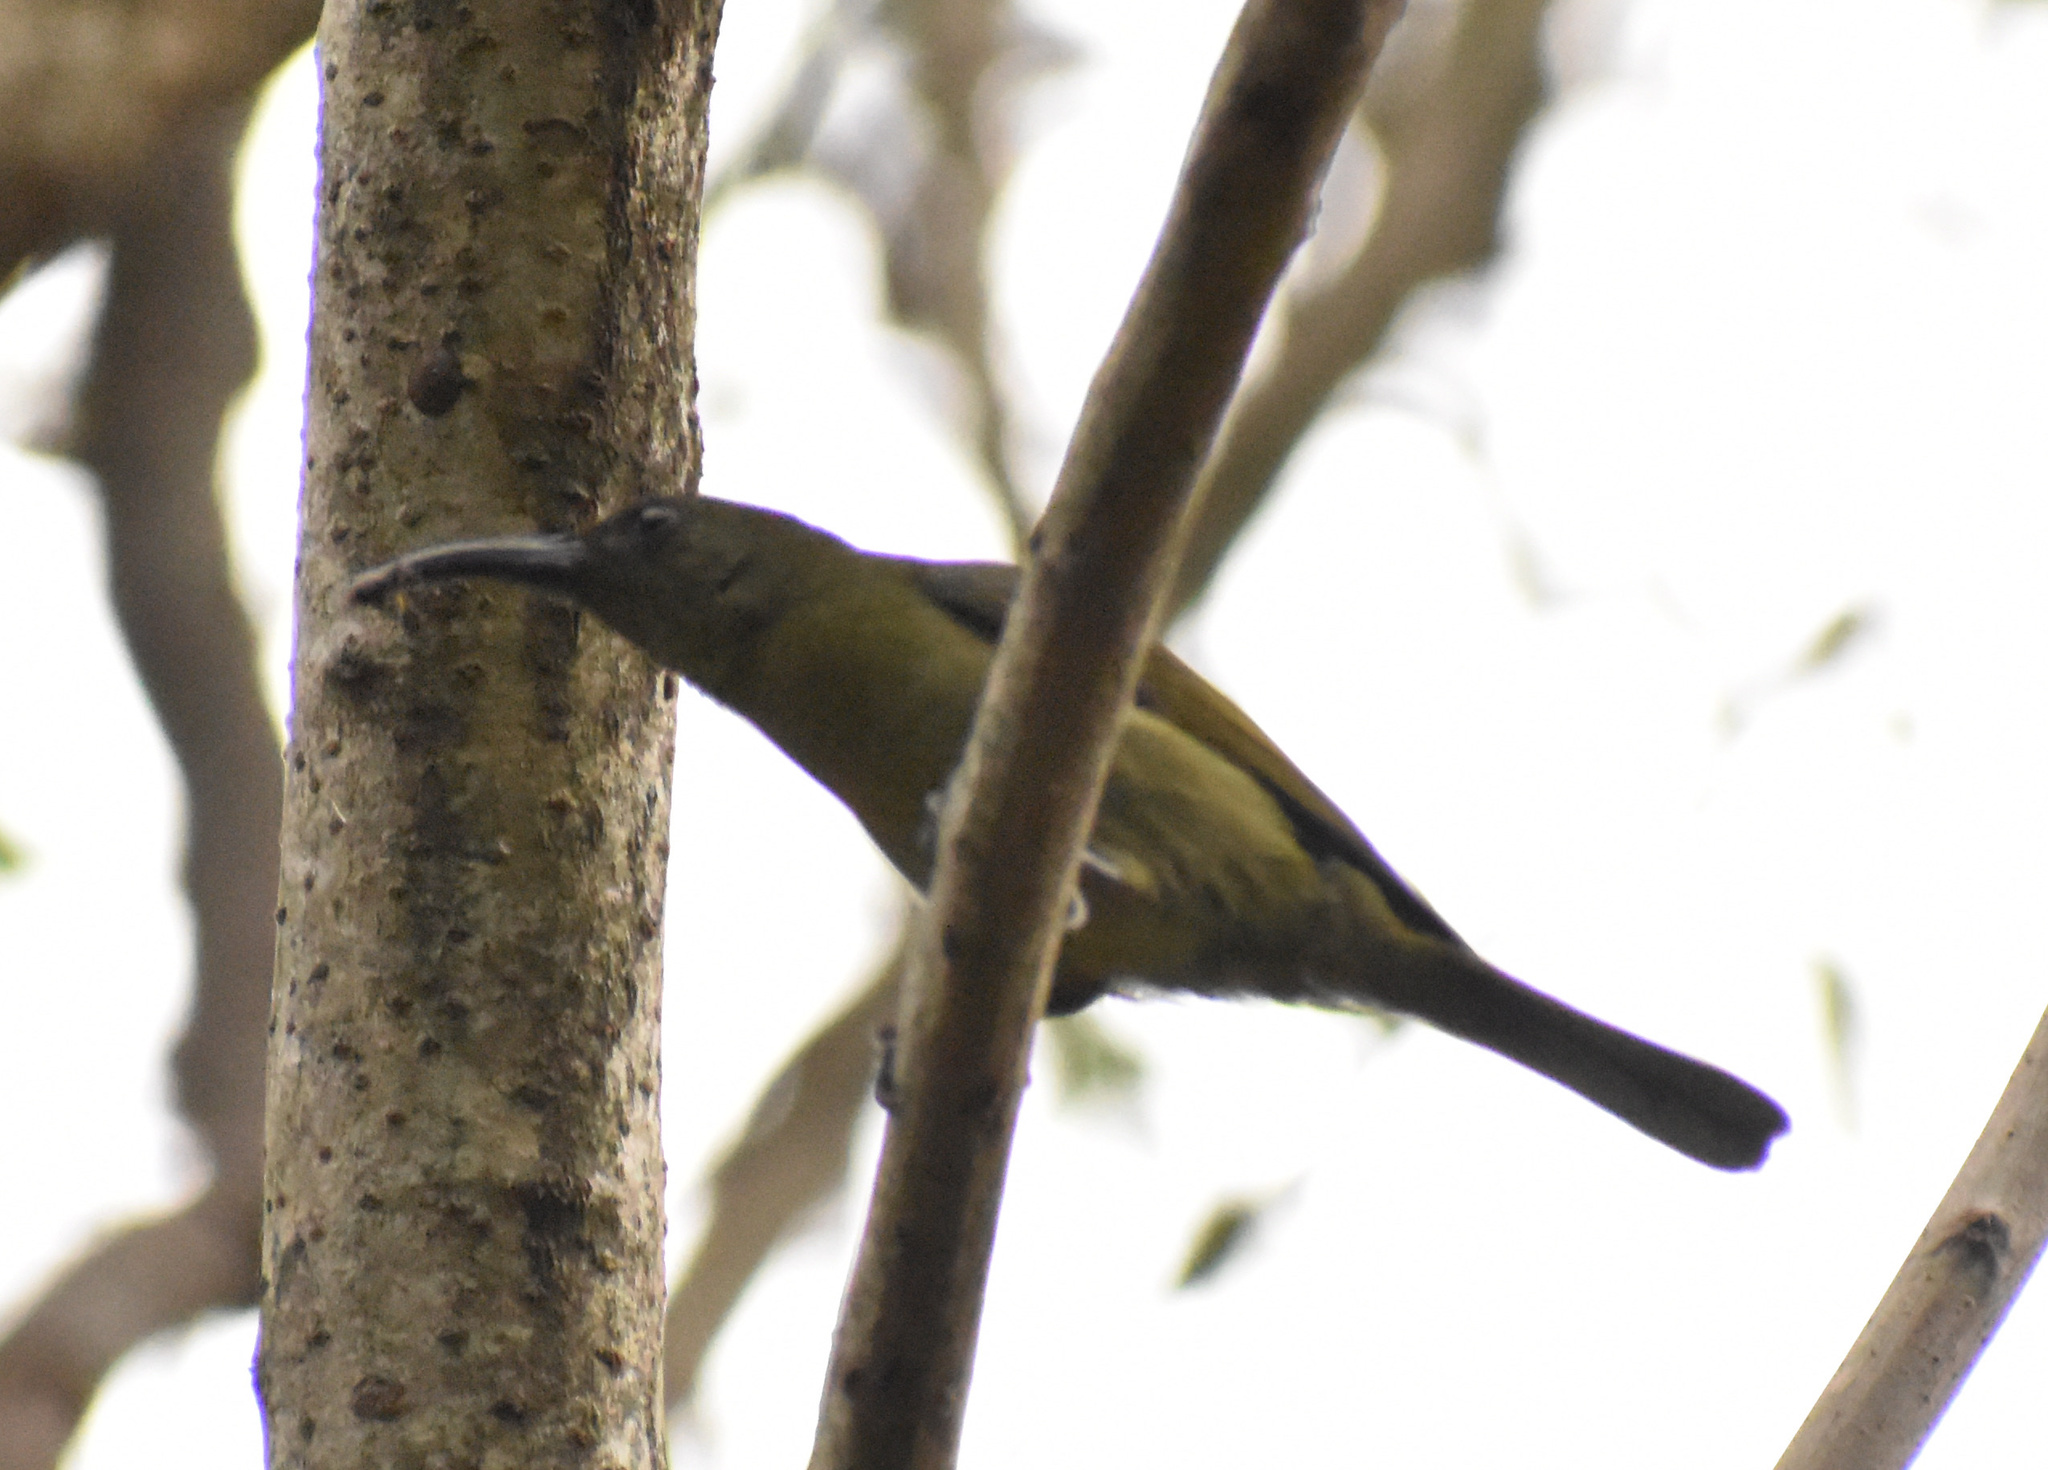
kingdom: Animalia
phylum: Chordata
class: Aves
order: Passeriformes
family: Nectariniidae
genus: Cyanomitra
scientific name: Cyanomitra olivacea
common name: Olive sunbird
